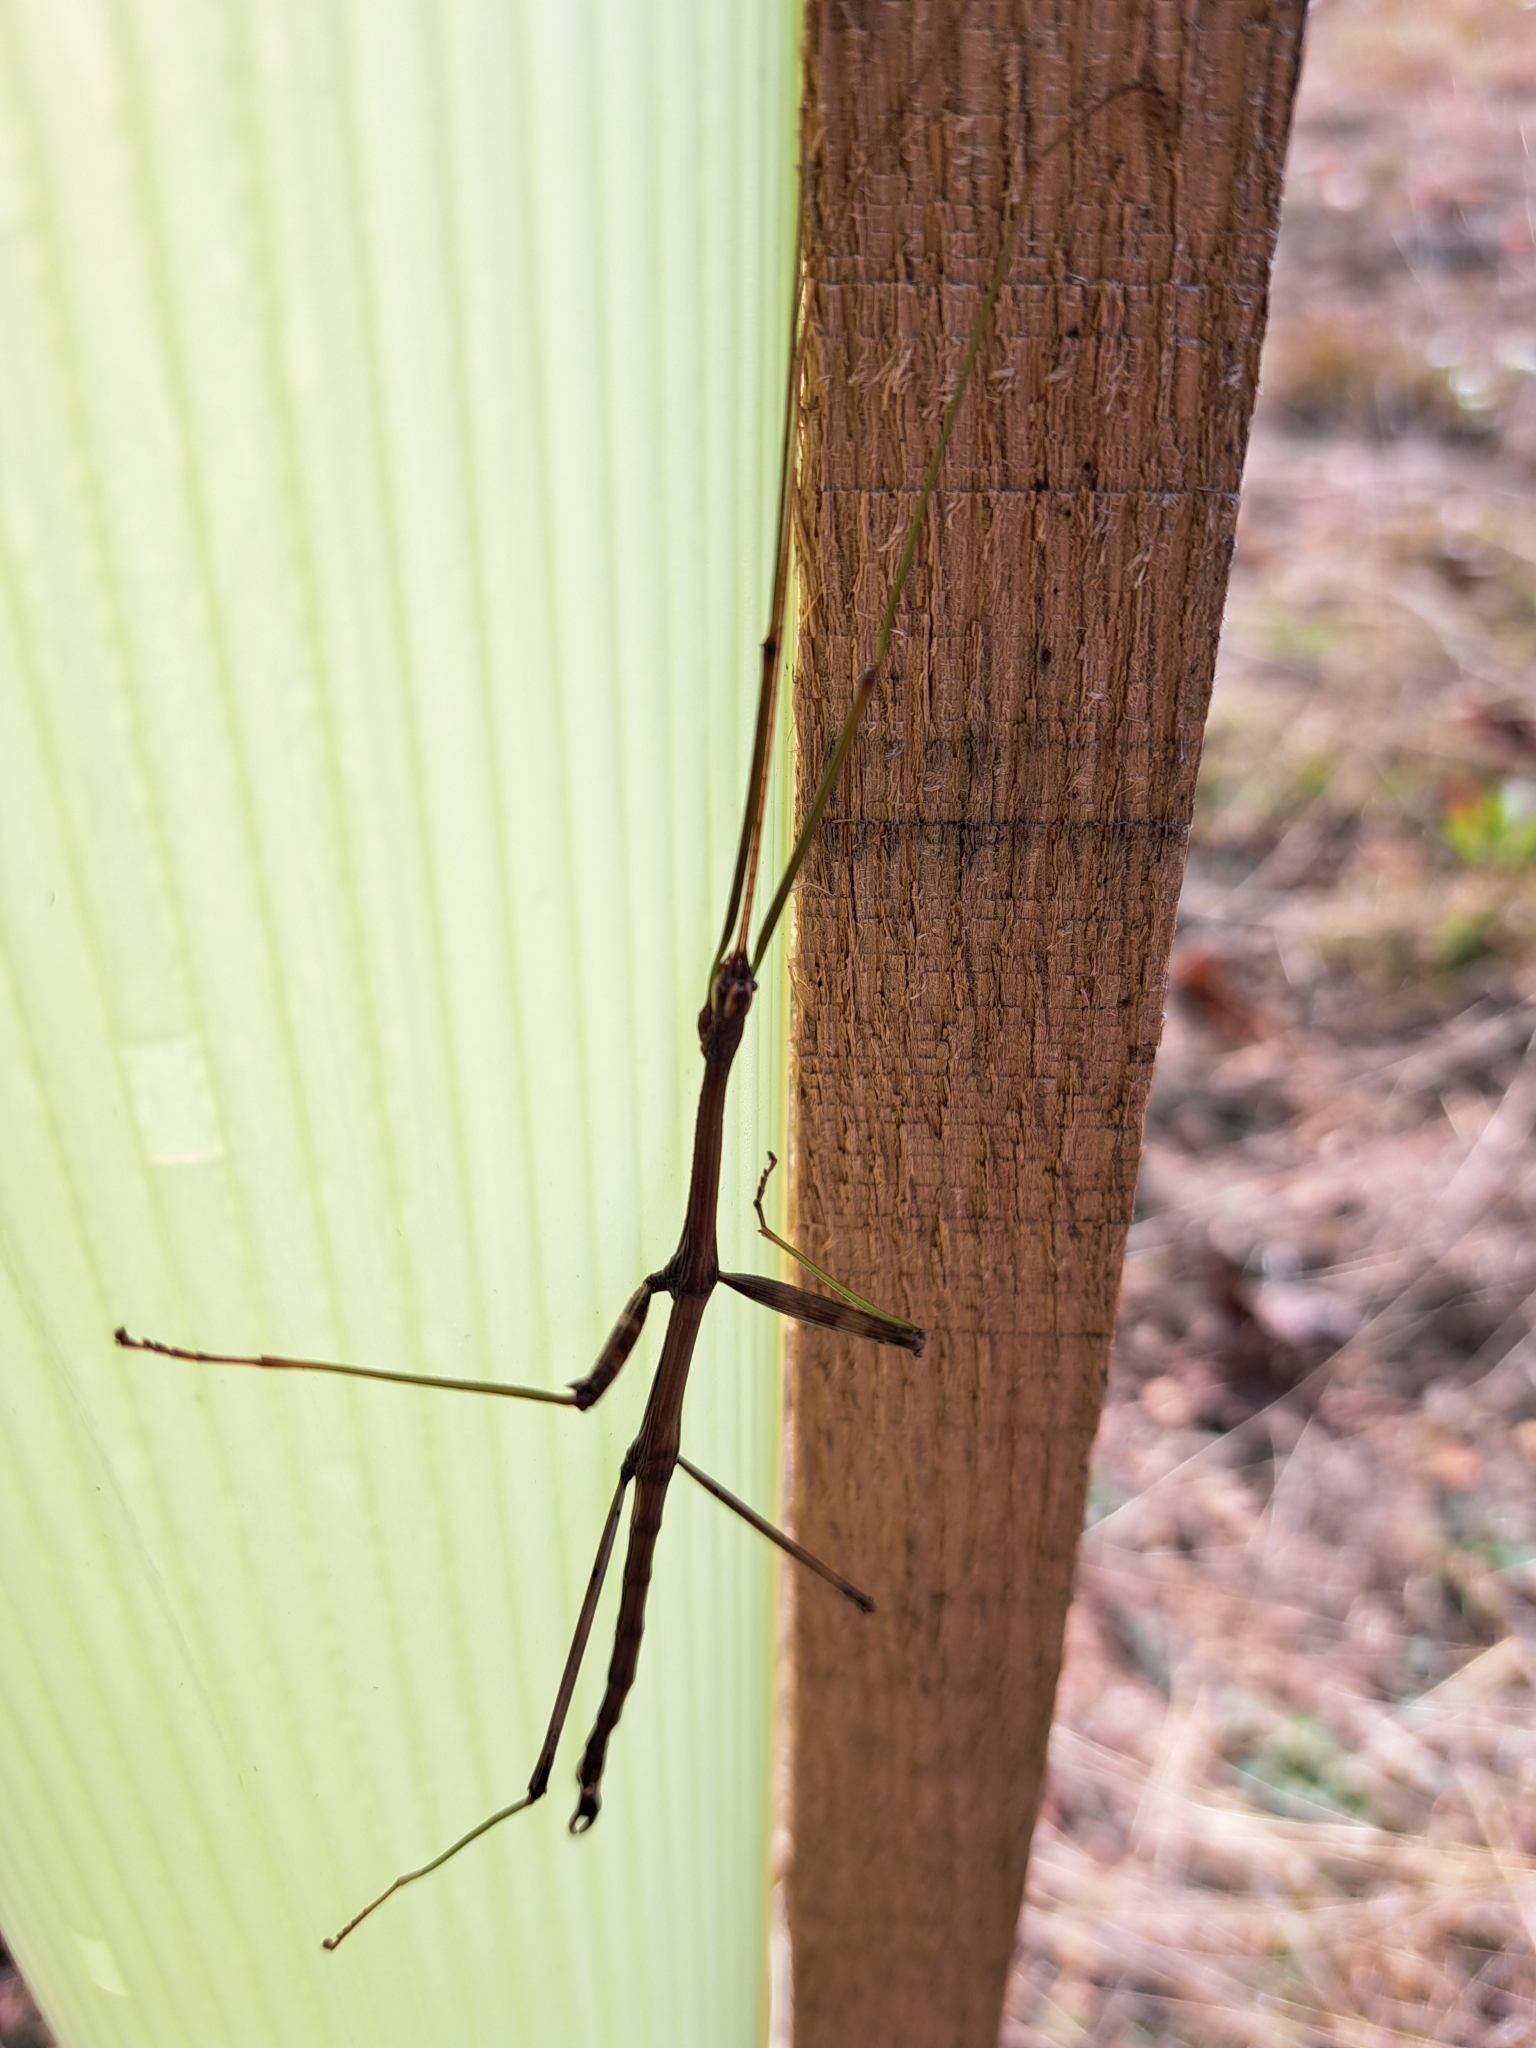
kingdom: Animalia
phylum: Arthropoda
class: Insecta
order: Phasmida
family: Diapheromeridae
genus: Diapheromera
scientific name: Diapheromera femorata
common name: Common american walkingstick
